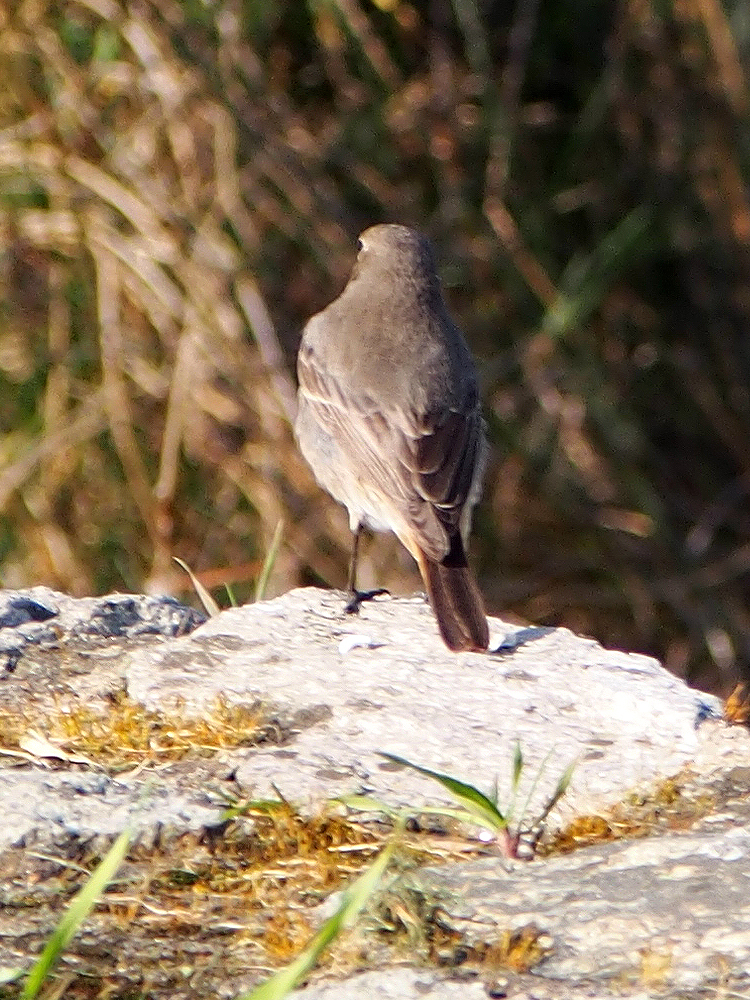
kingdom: Animalia
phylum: Chordata
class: Aves
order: Passeriformes
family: Muscicapidae
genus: Phoenicurus
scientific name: Phoenicurus ochruros
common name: Black redstart
